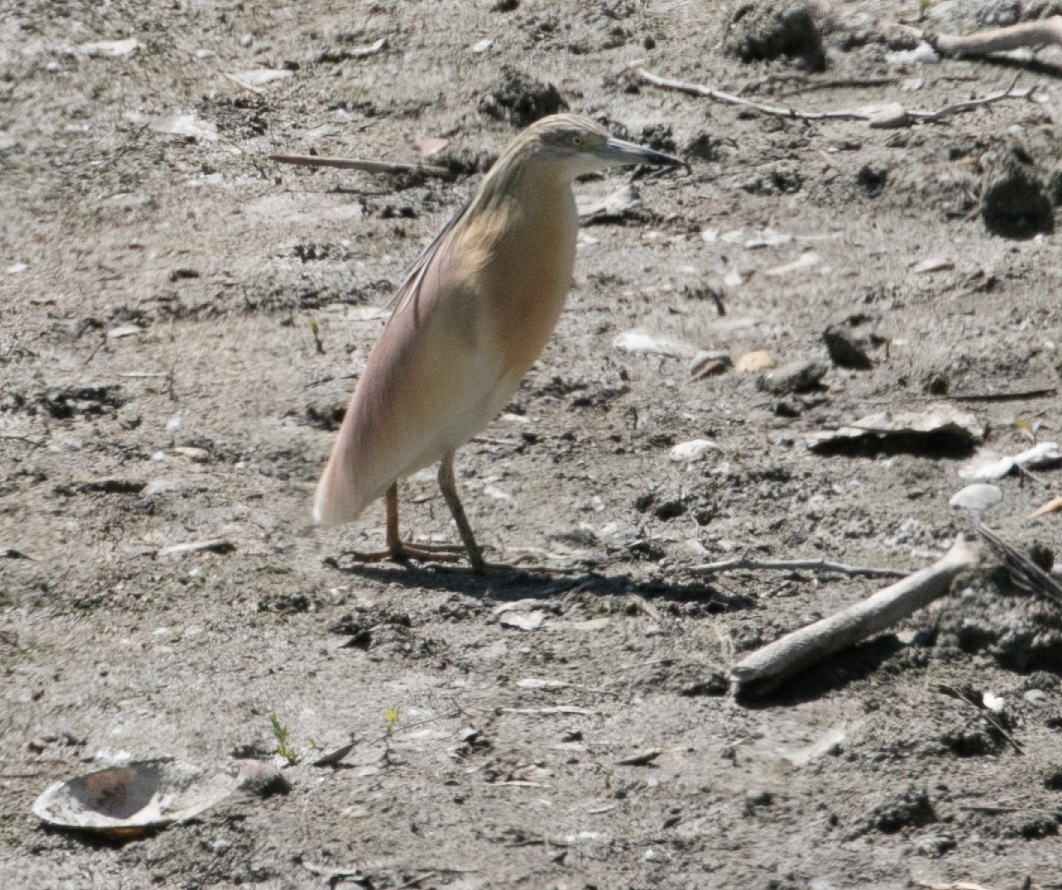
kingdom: Animalia
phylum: Chordata
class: Aves
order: Pelecaniformes
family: Ardeidae
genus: Ardeola
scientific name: Ardeola ralloides
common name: Squacco heron
